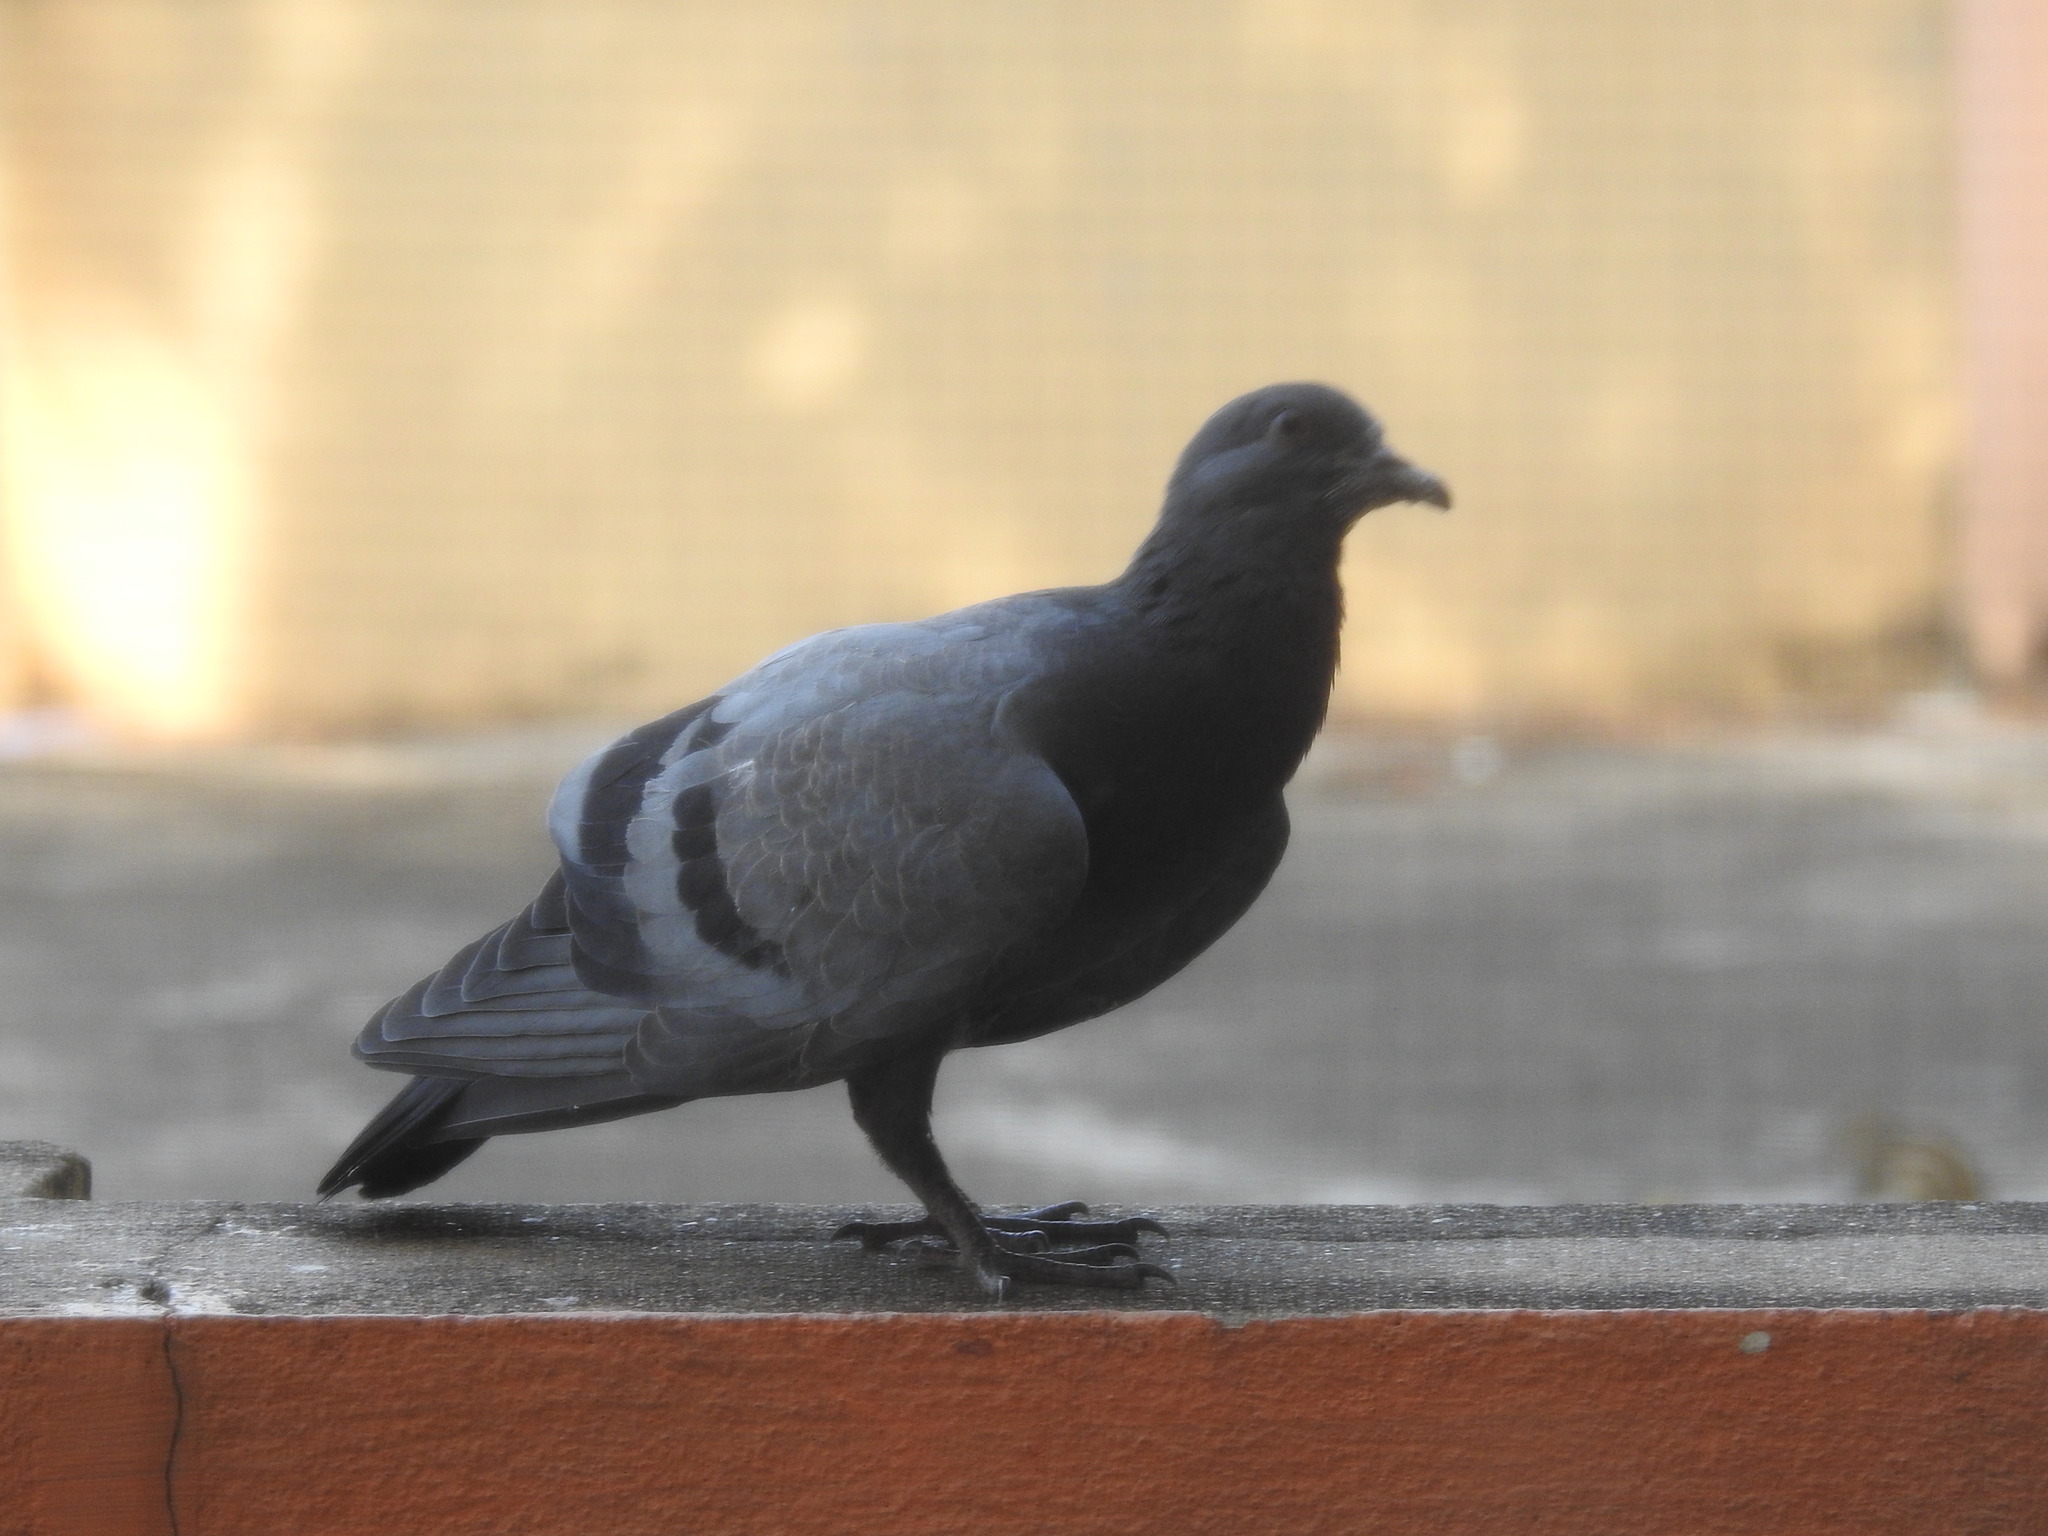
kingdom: Animalia
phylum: Chordata
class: Aves
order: Columbiformes
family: Columbidae
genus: Columba
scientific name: Columba livia
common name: Rock pigeon
